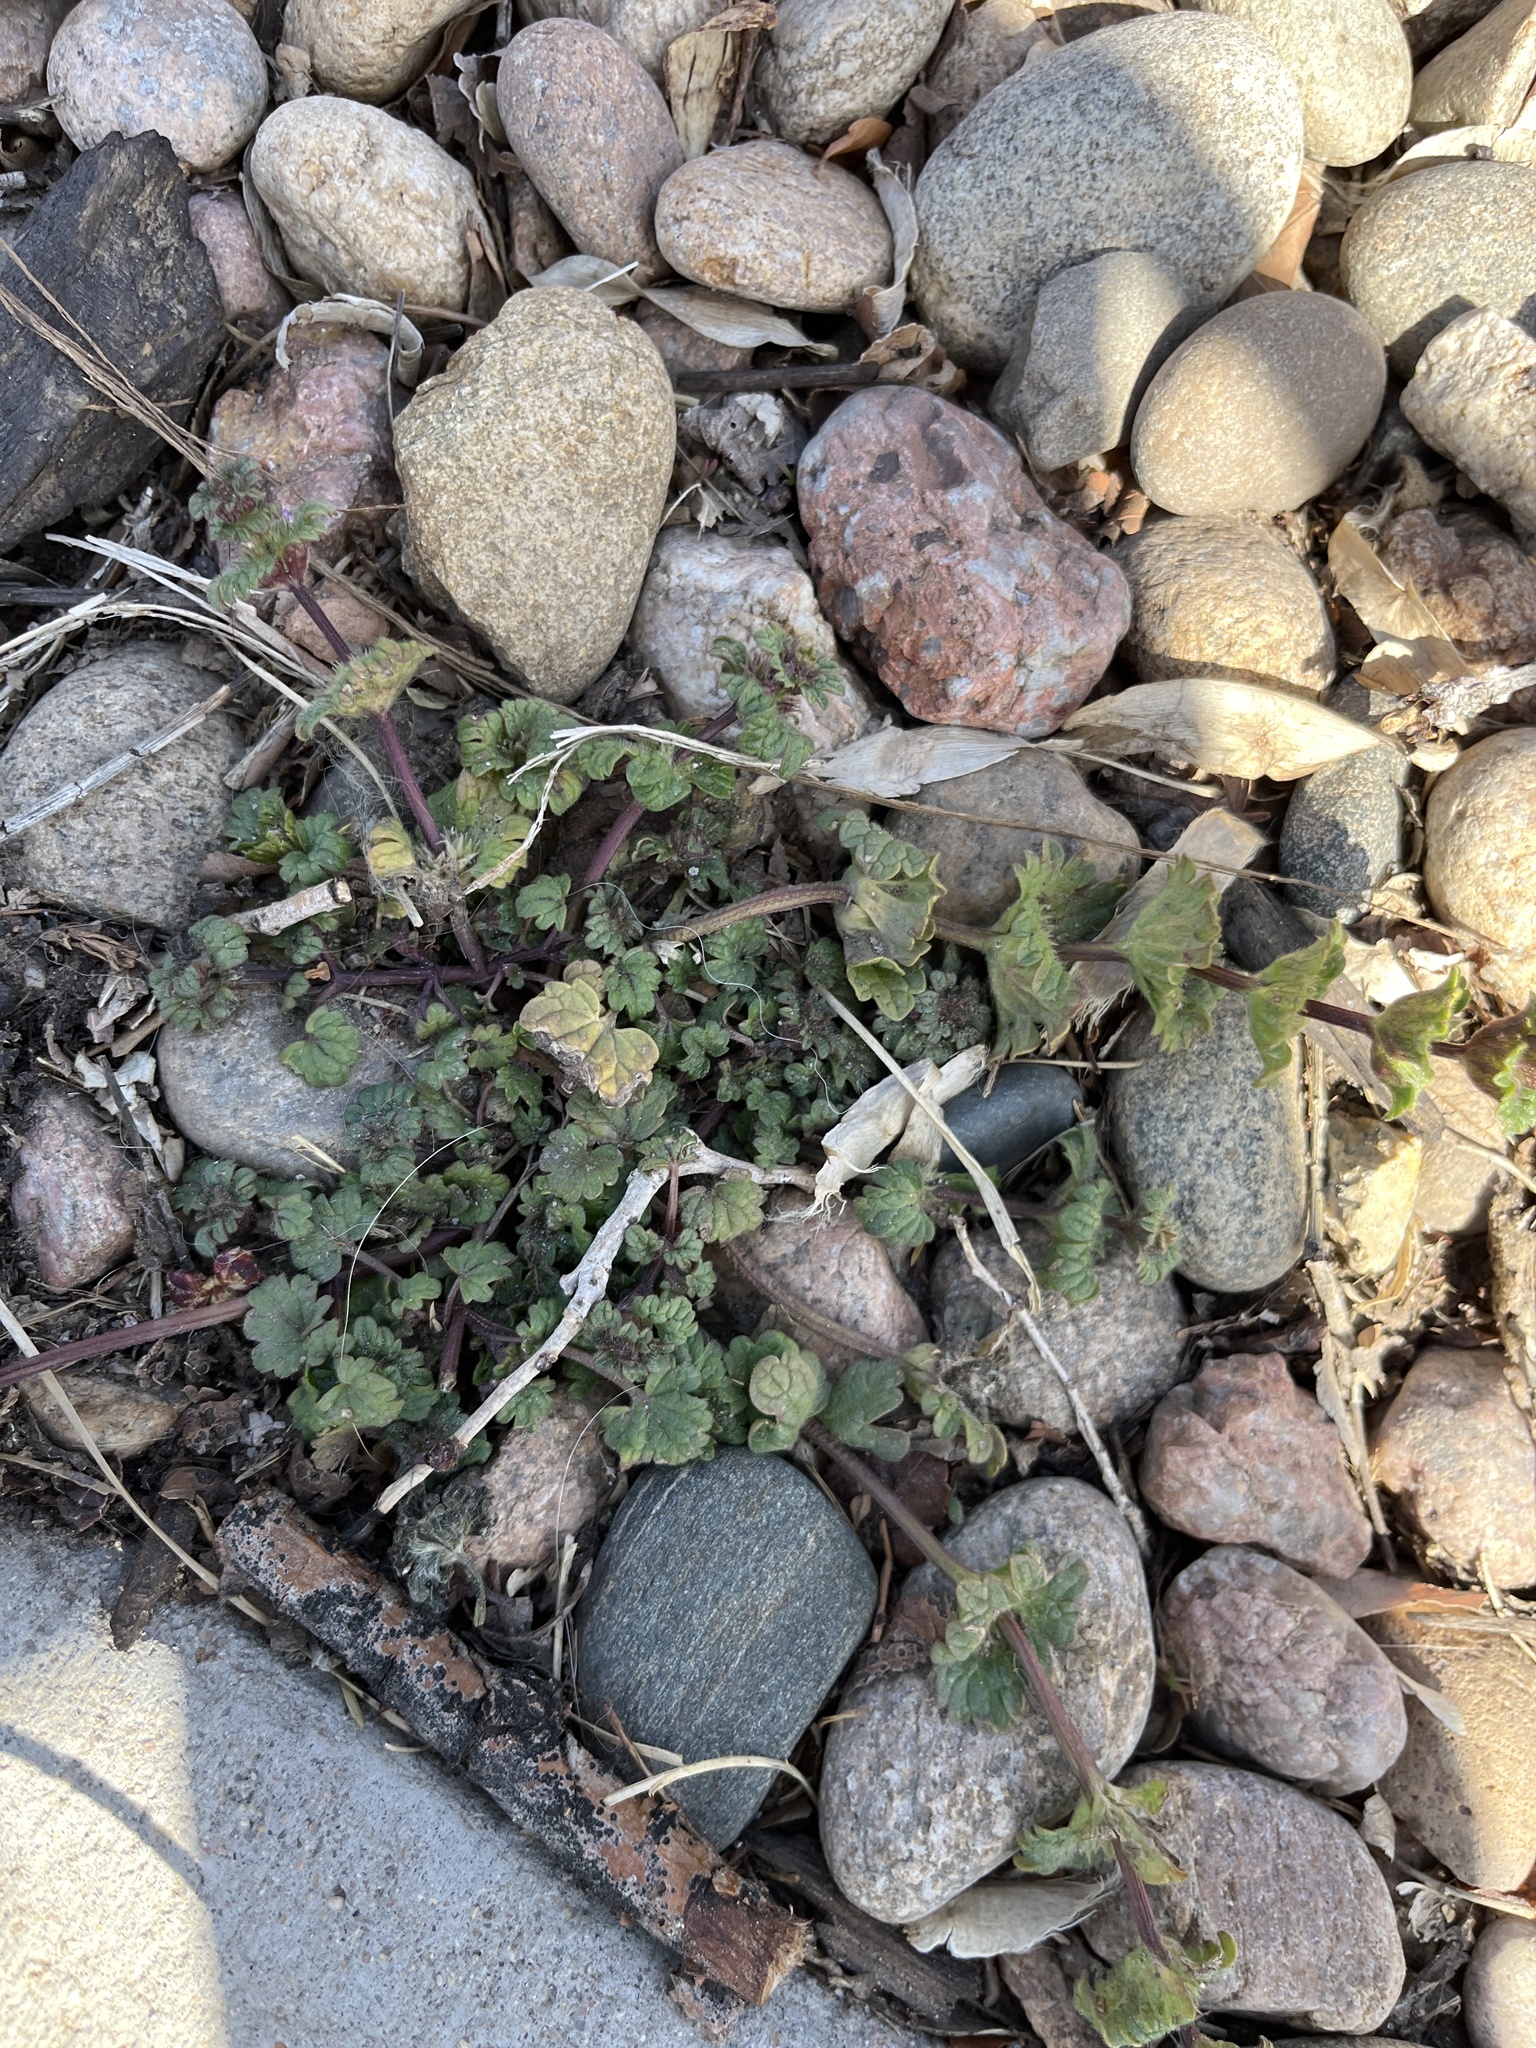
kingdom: Plantae
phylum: Tracheophyta
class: Magnoliopsida
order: Lamiales
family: Lamiaceae
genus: Lamium
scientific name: Lamium amplexicaule
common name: Henbit dead-nettle
